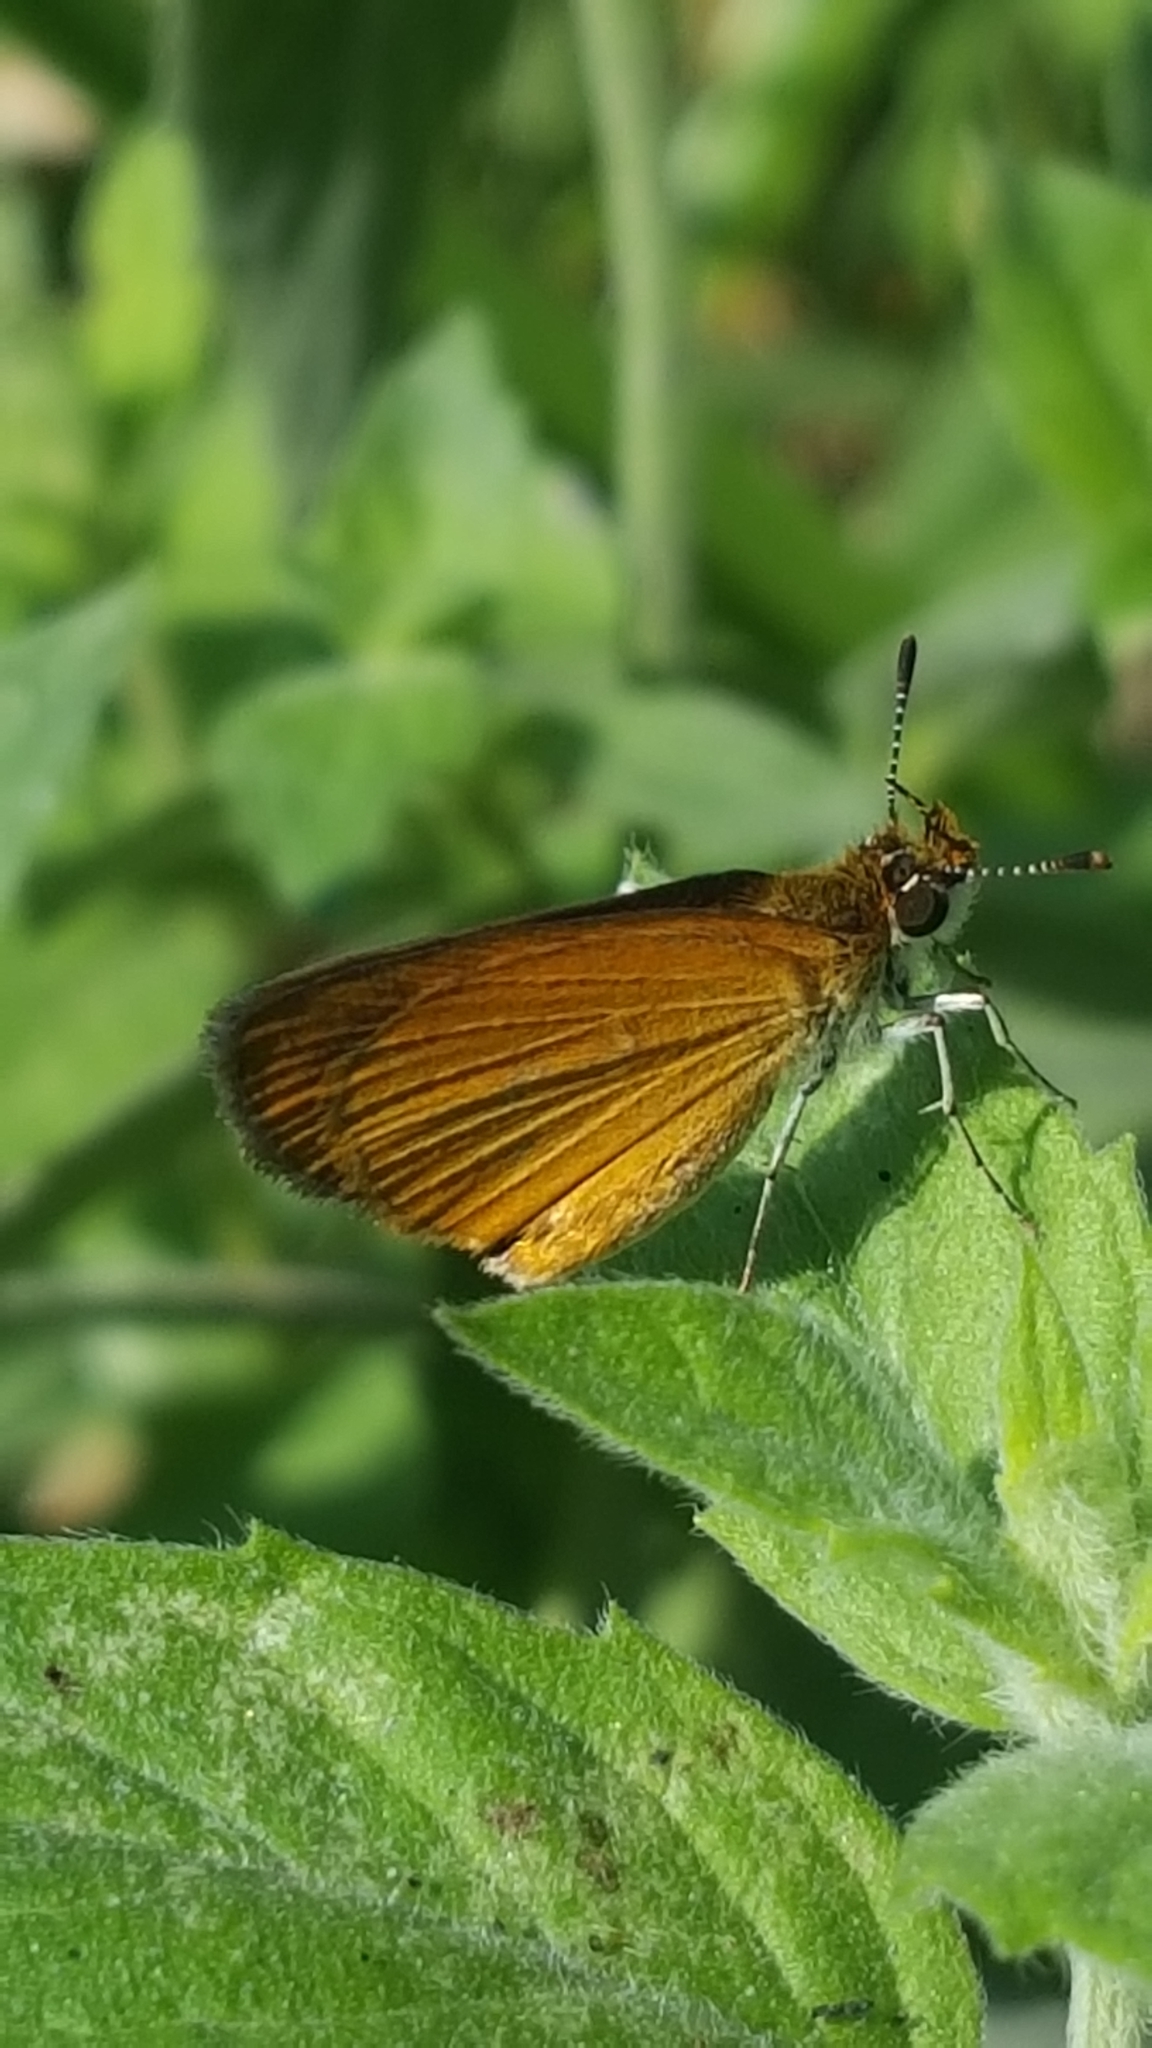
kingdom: Animalia
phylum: Arthropoda
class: Insecta
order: Lepidoptera
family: Hesperiidae
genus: Ancyloxypha
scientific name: Ancyloxypha numitor
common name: Least skipper
